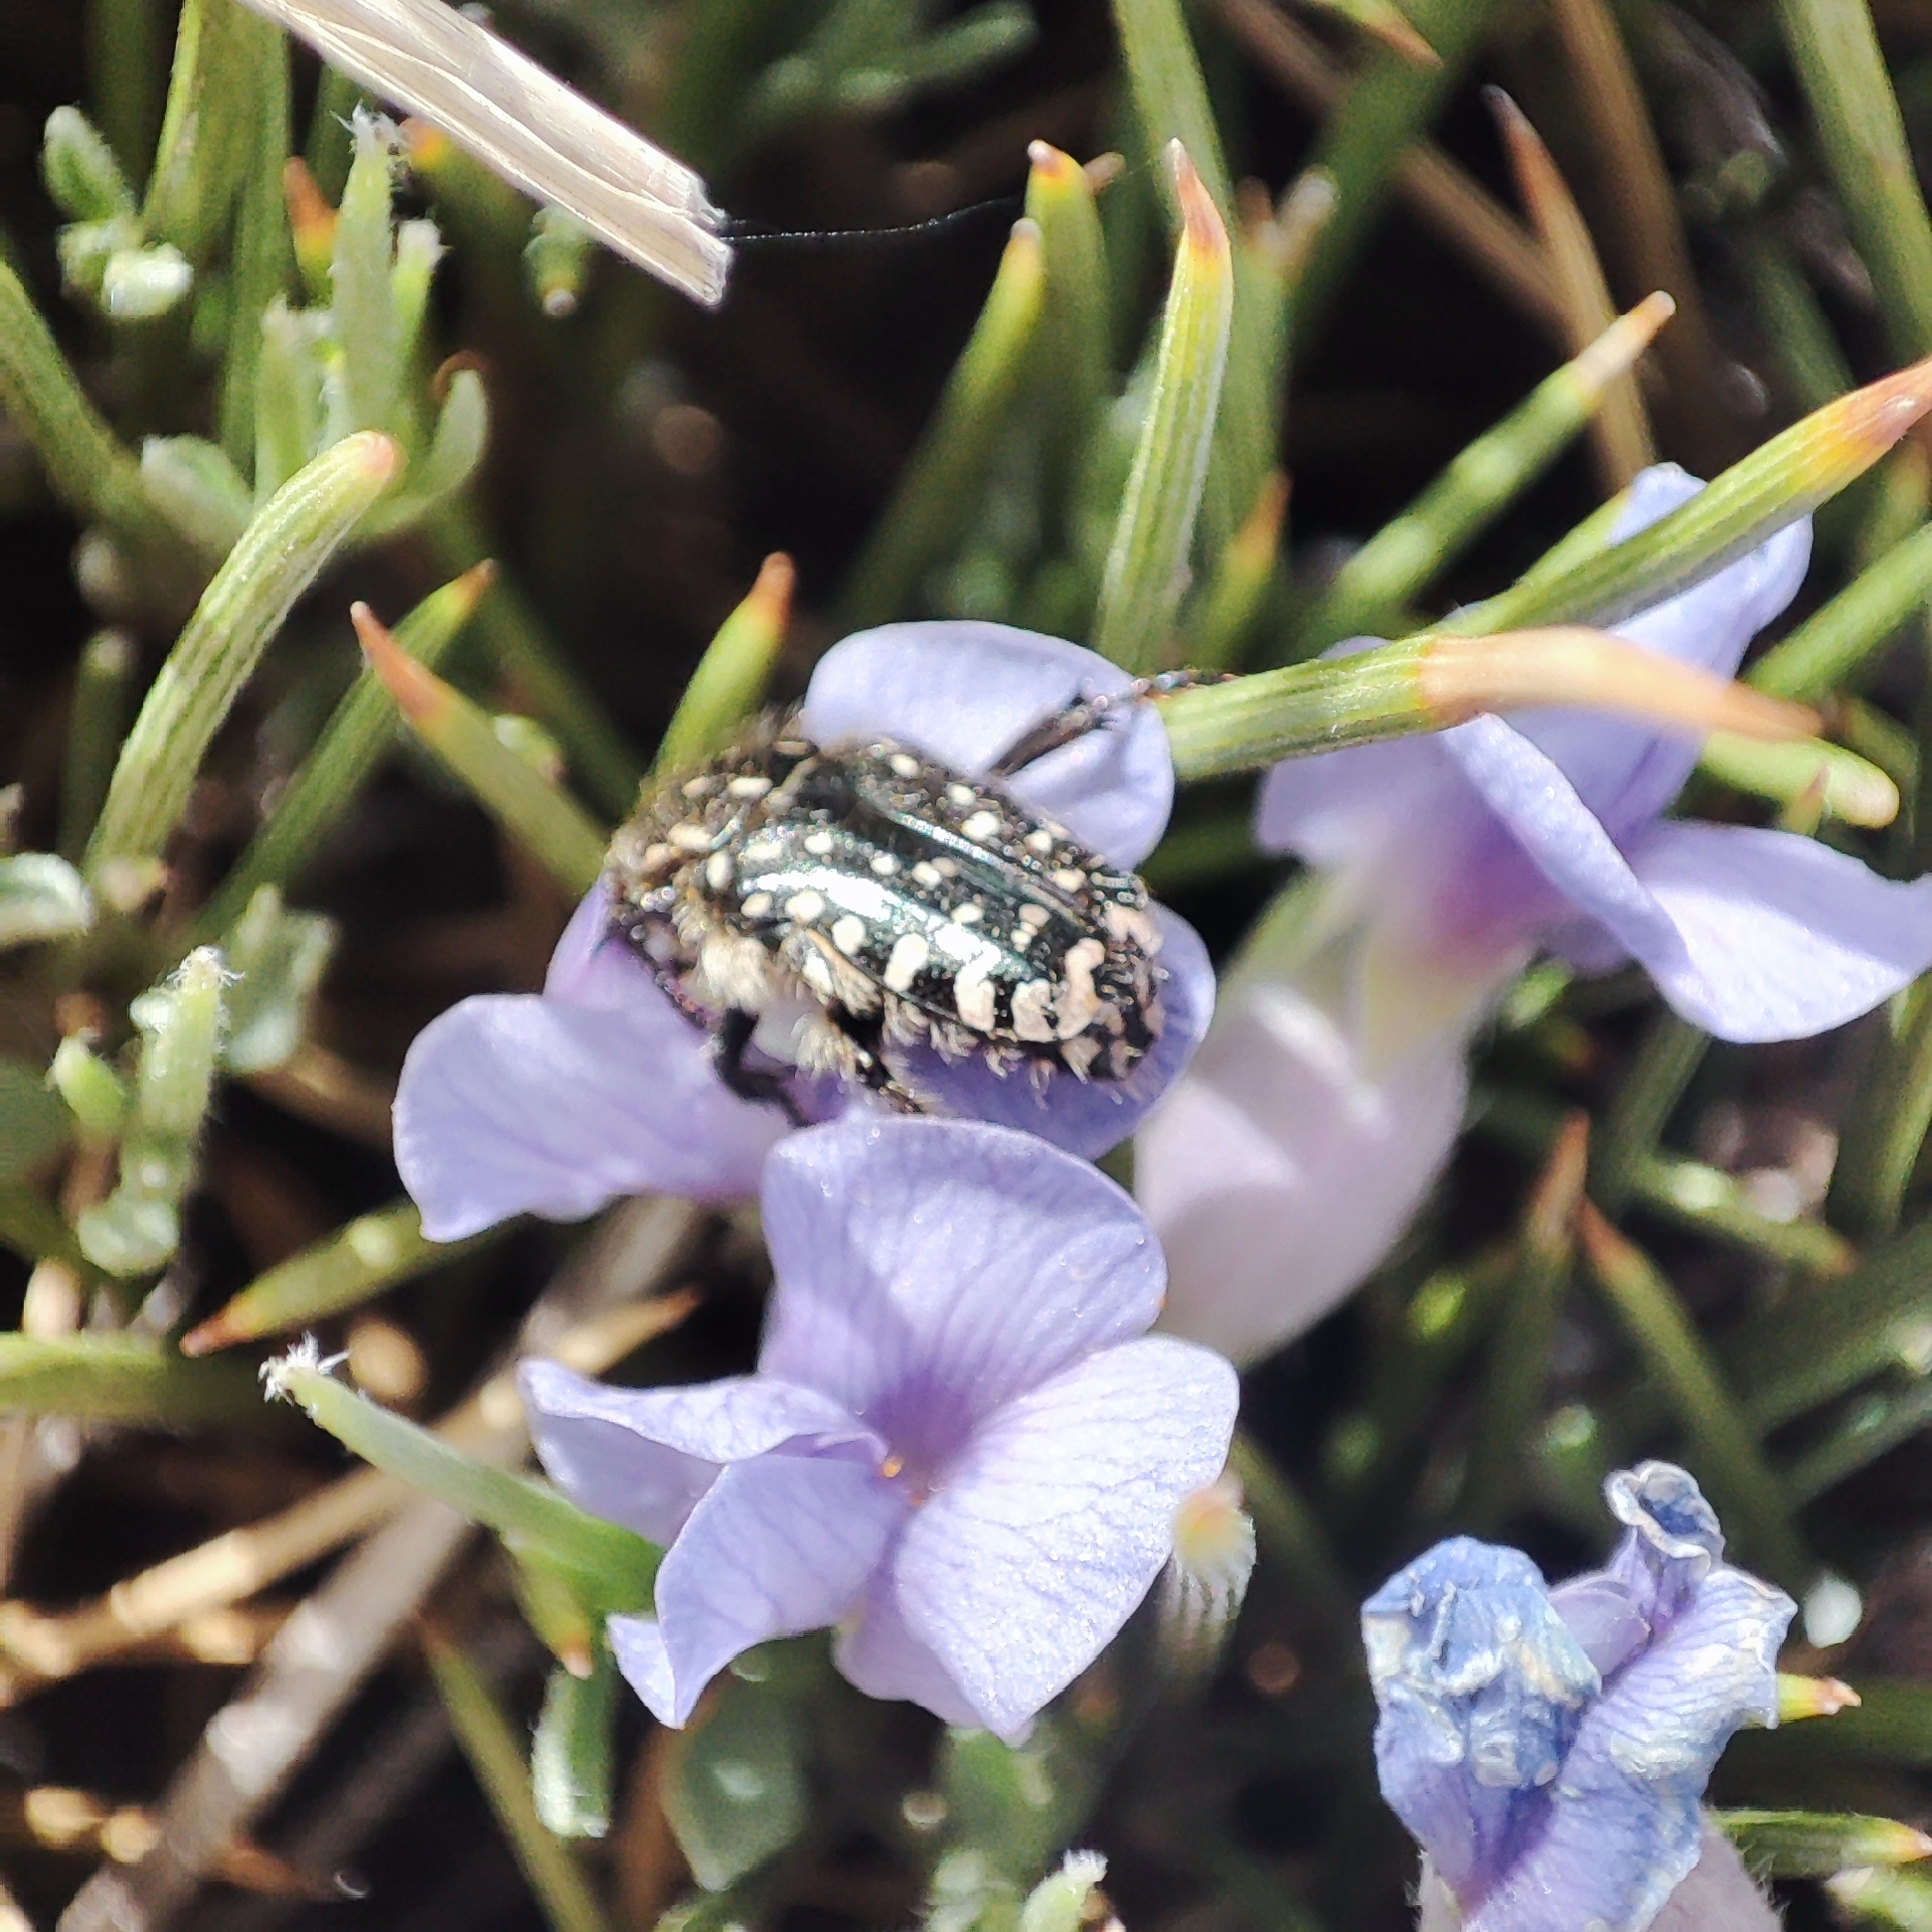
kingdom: Animalia
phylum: Arthropoda
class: Insecta
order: Coleoptera
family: Scarabaeidae
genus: Oxythyrea
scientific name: Oxythyrea funesta
